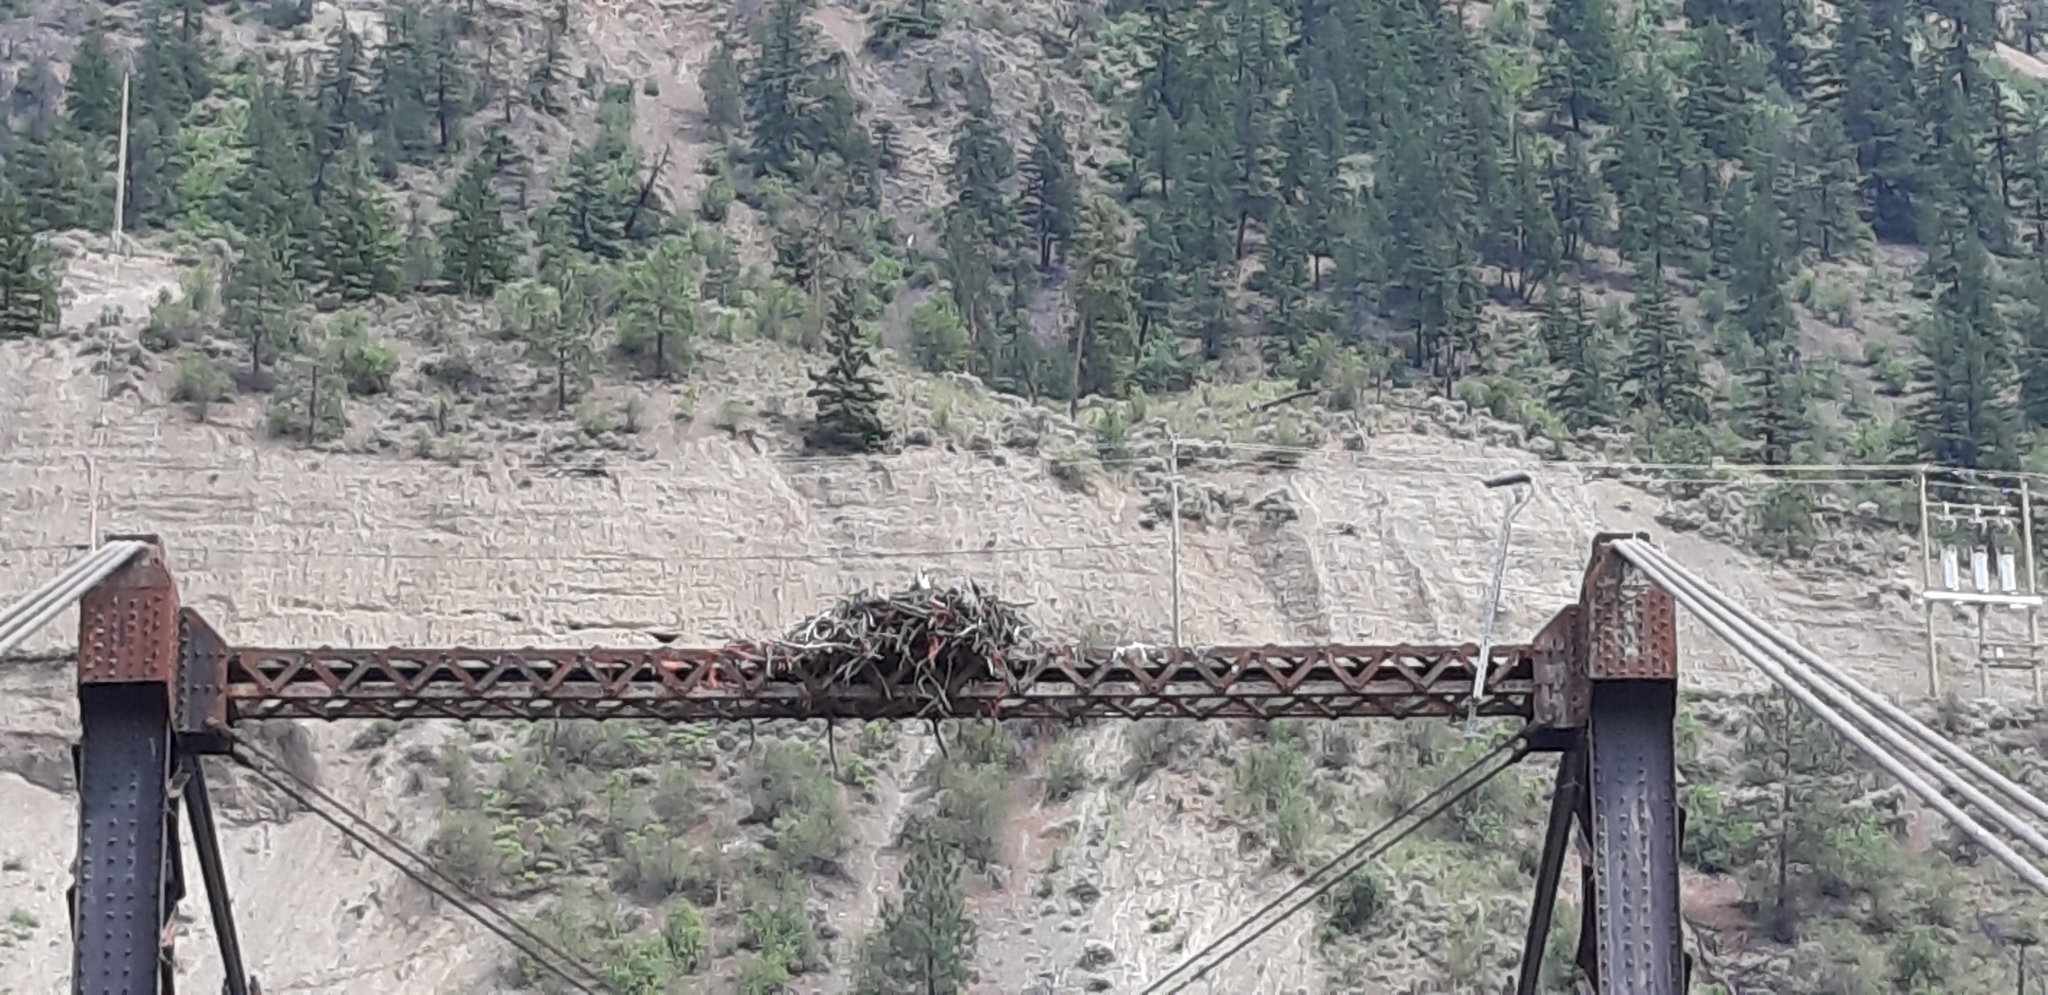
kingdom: Animalia
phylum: Chordata
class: Aves
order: Accipitriformes
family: Pandionidae
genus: Pandion
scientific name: Pandion haliaetus
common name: Osprey
